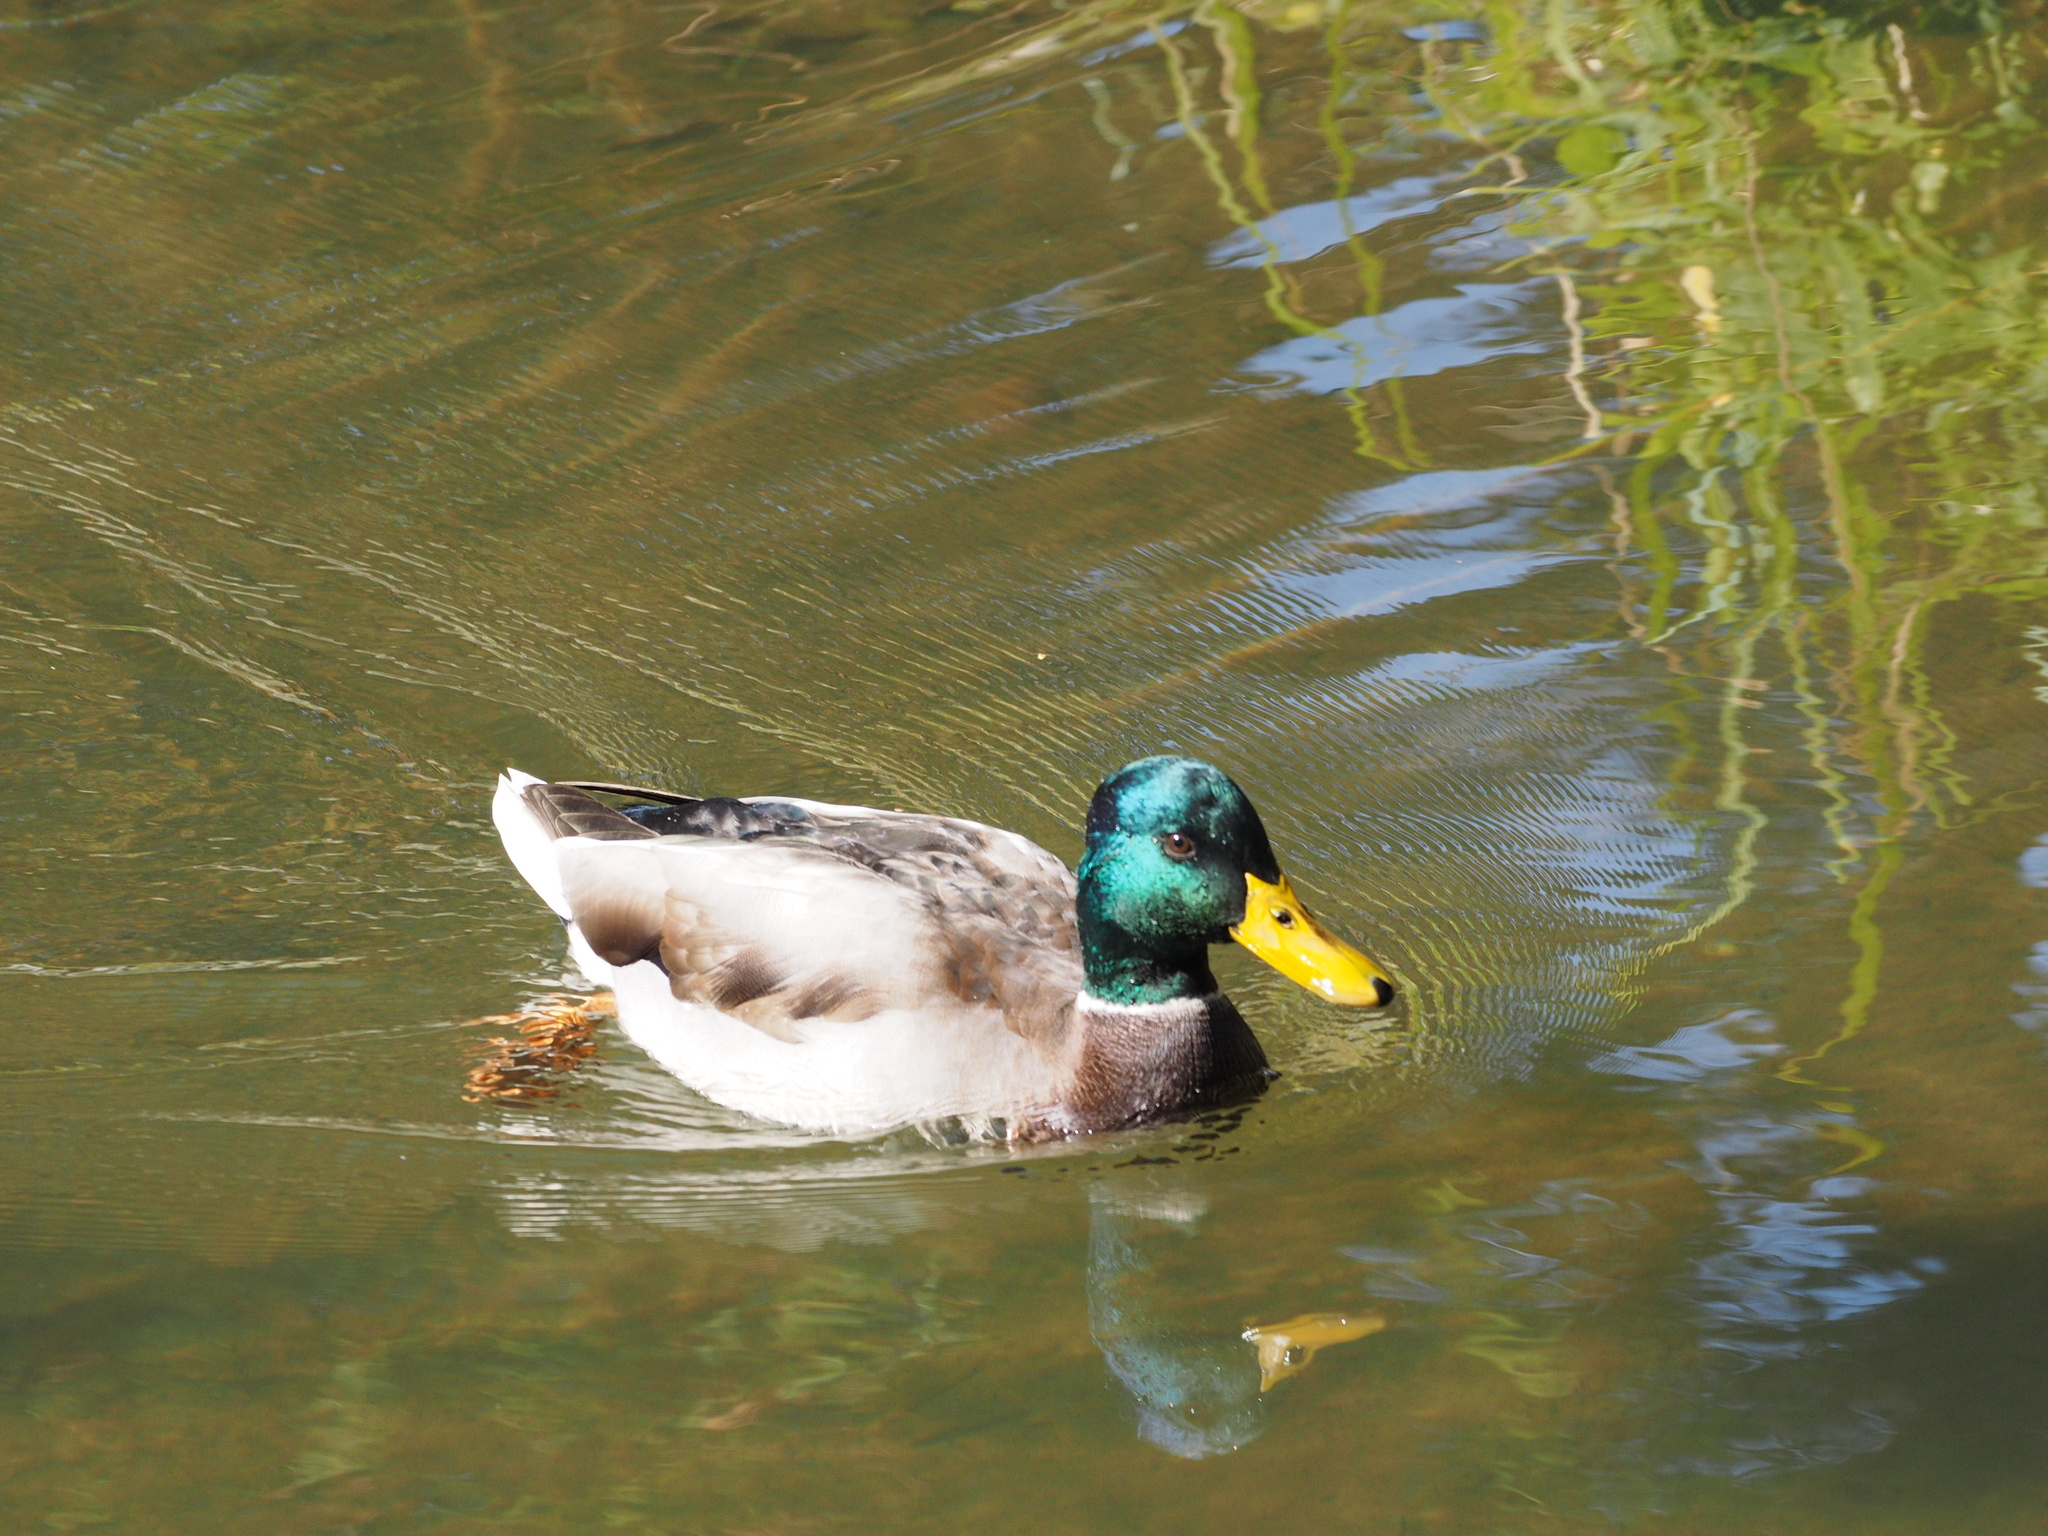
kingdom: Animalia
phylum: Chordata
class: Aves
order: Anseriformes
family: Anatidae
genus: Anas
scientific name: Anas platyrhynchos
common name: Mallard
